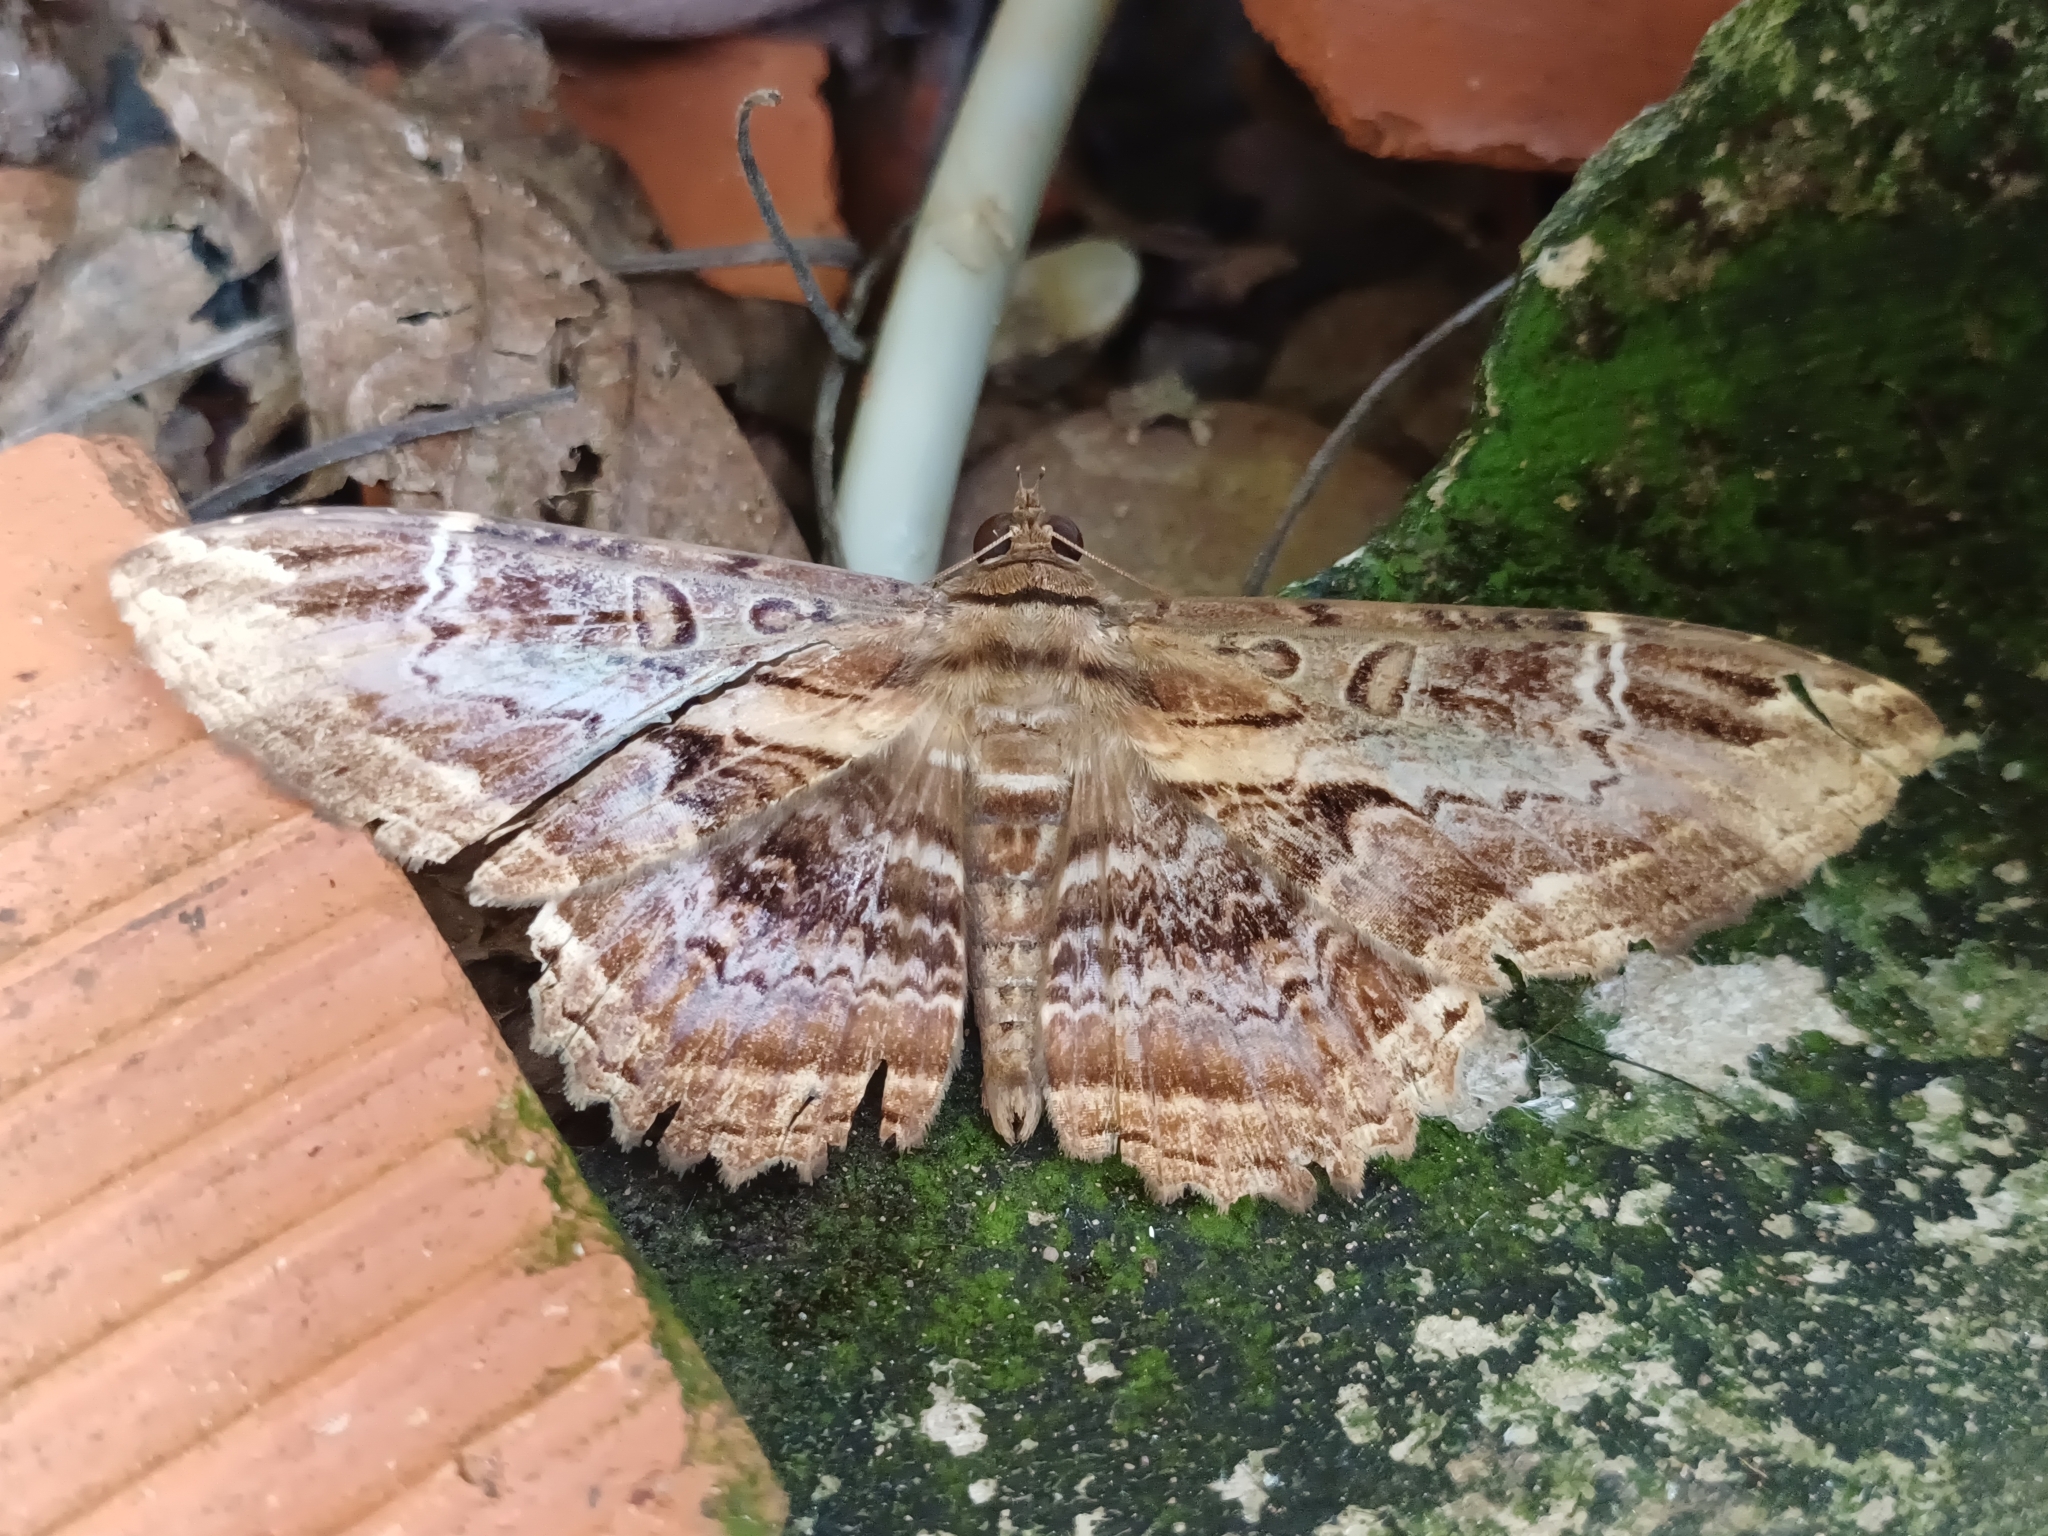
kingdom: Animalia
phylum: Arthropoda
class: Insecta
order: Lepidoptera
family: Noctuidae
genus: Ronania
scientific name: Ronania
